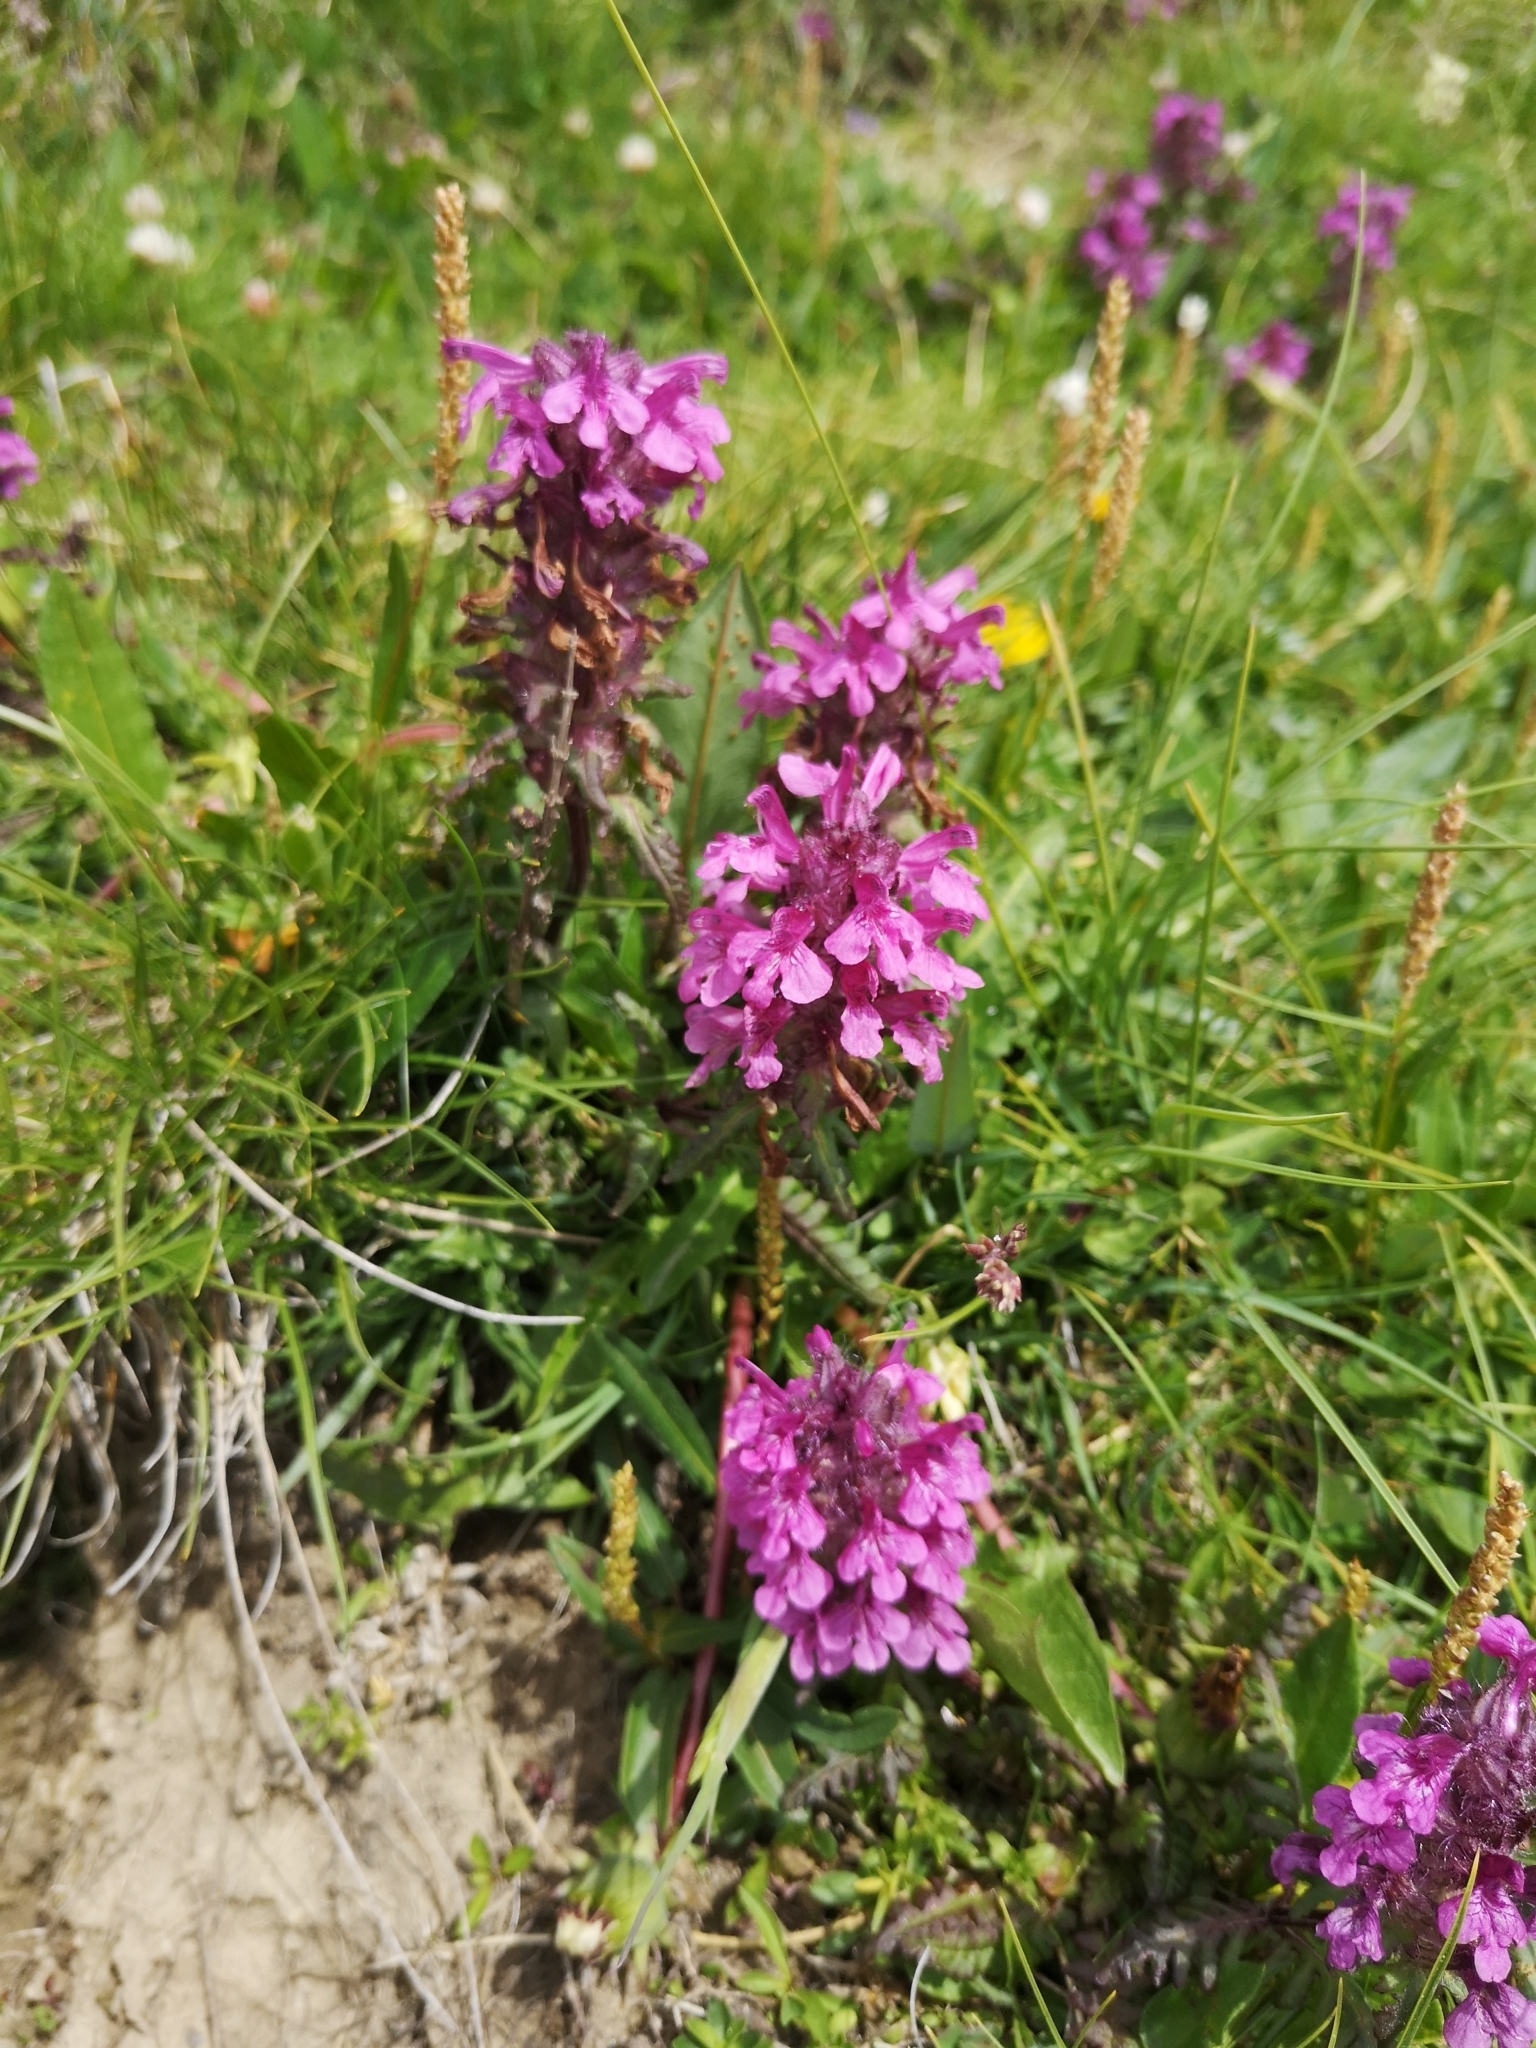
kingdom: Plantae
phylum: Tracheophyta
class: Magnoliopsida
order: Lamiales
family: Orobanchaceae
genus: Pedicularis
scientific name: Pedicularis verticillata
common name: Whorled lousewort
